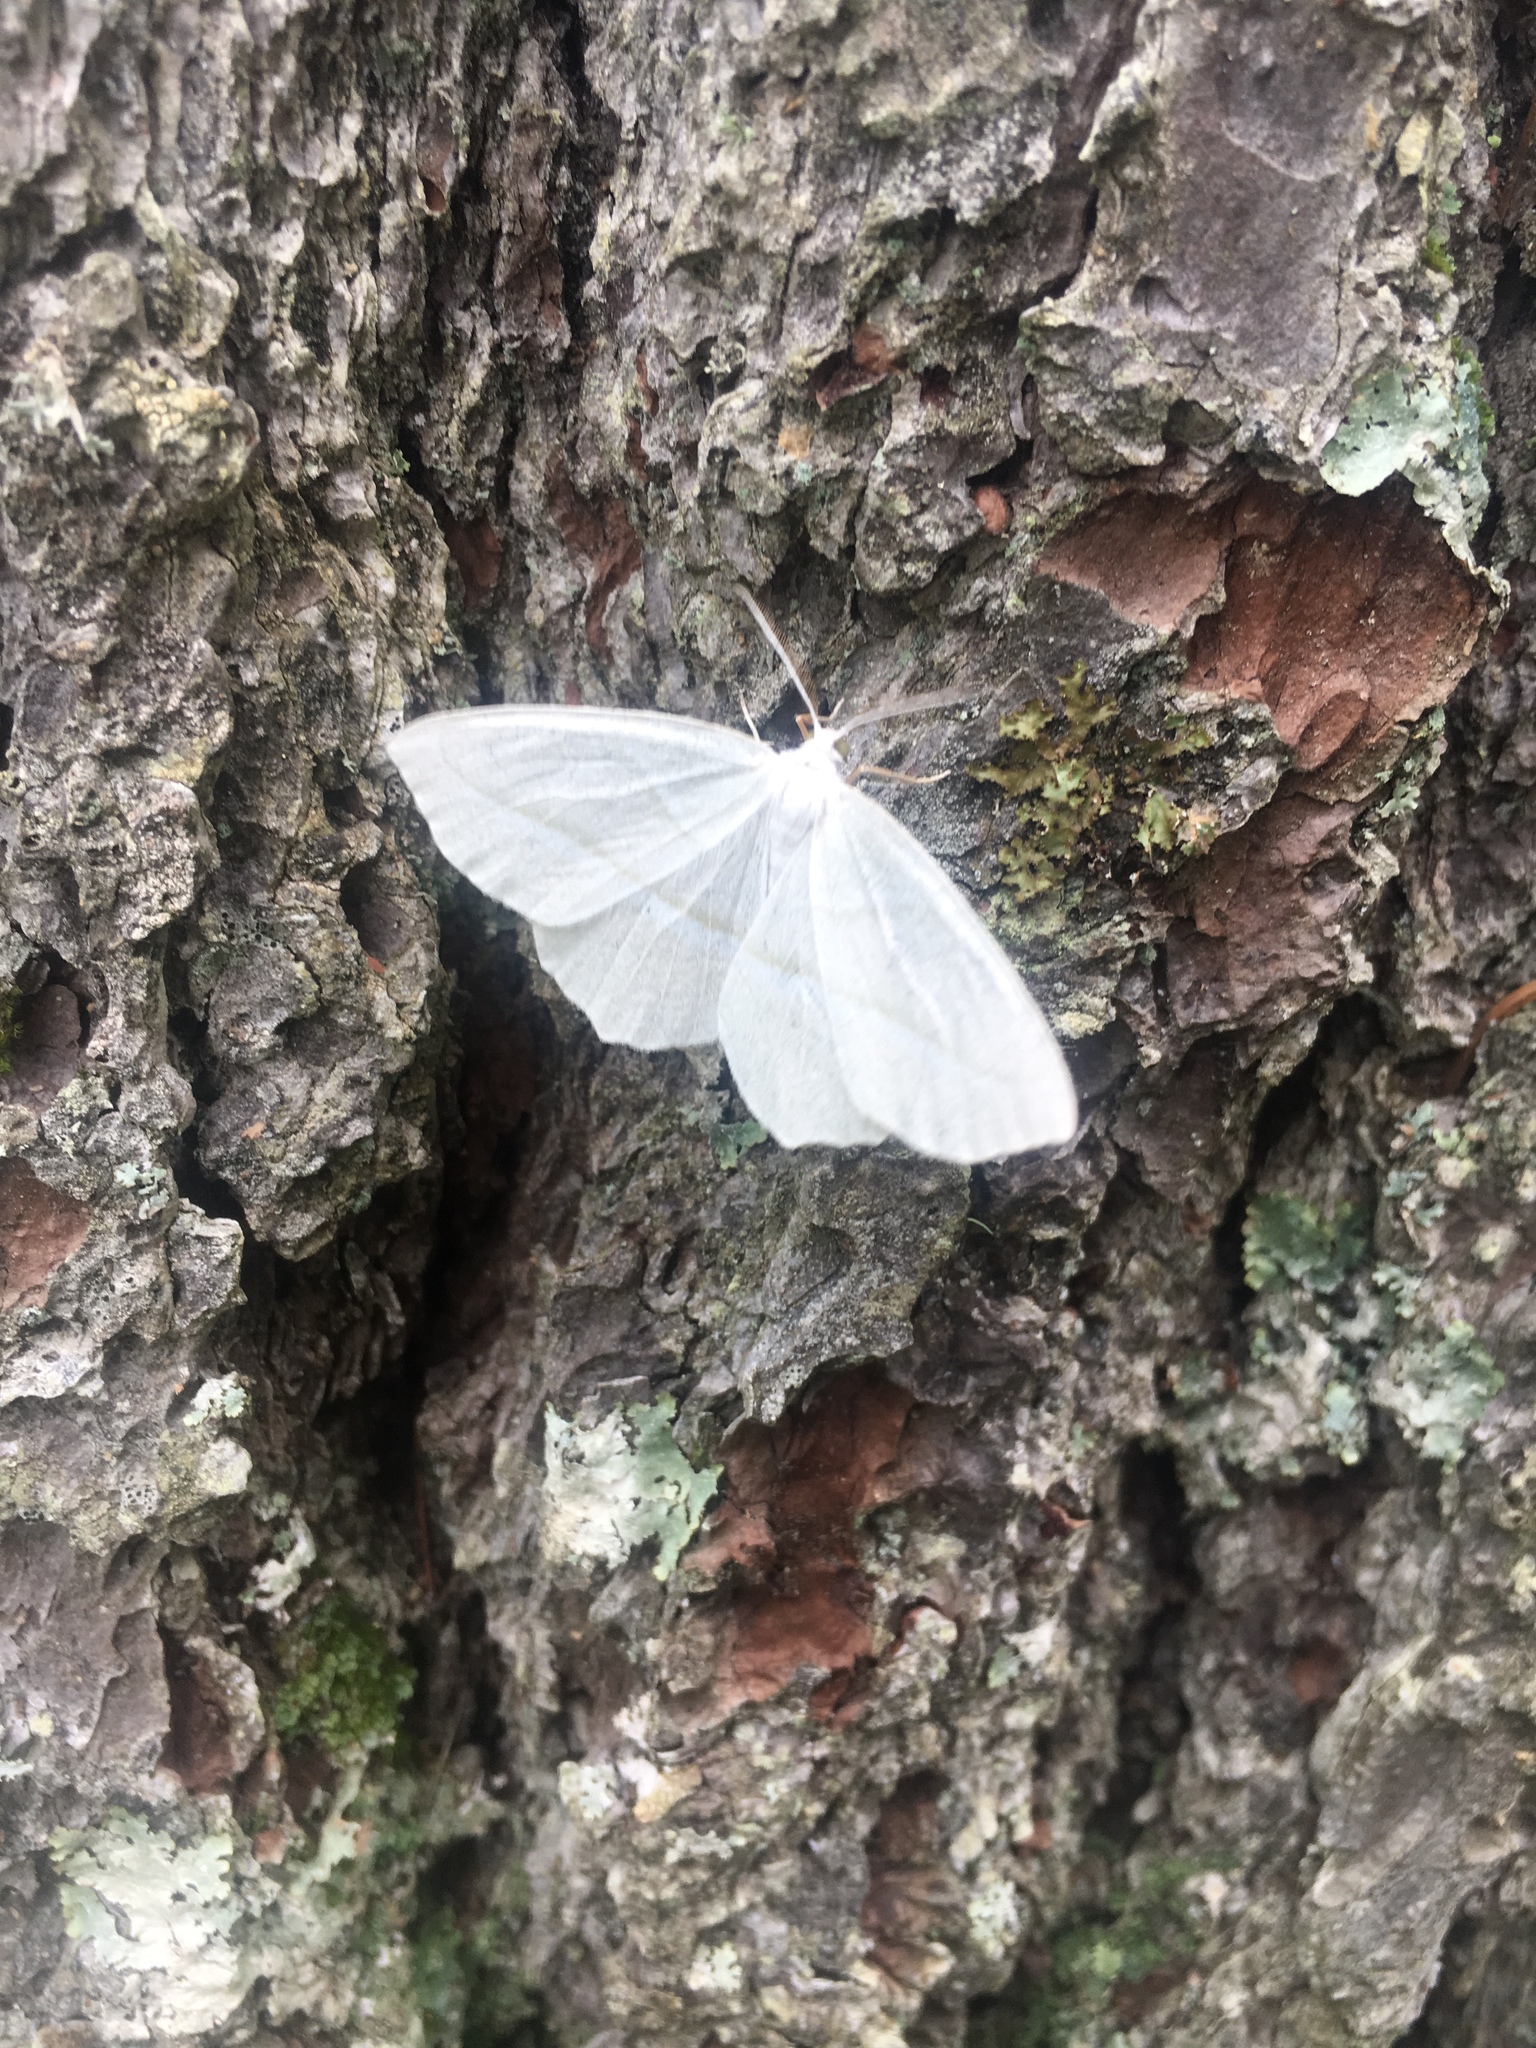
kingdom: Animalia
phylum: Arthropoda
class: Insecta
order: Lepidoptera
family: Geometridae
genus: Campaea
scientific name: Campaea perlata
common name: Fringed looper
